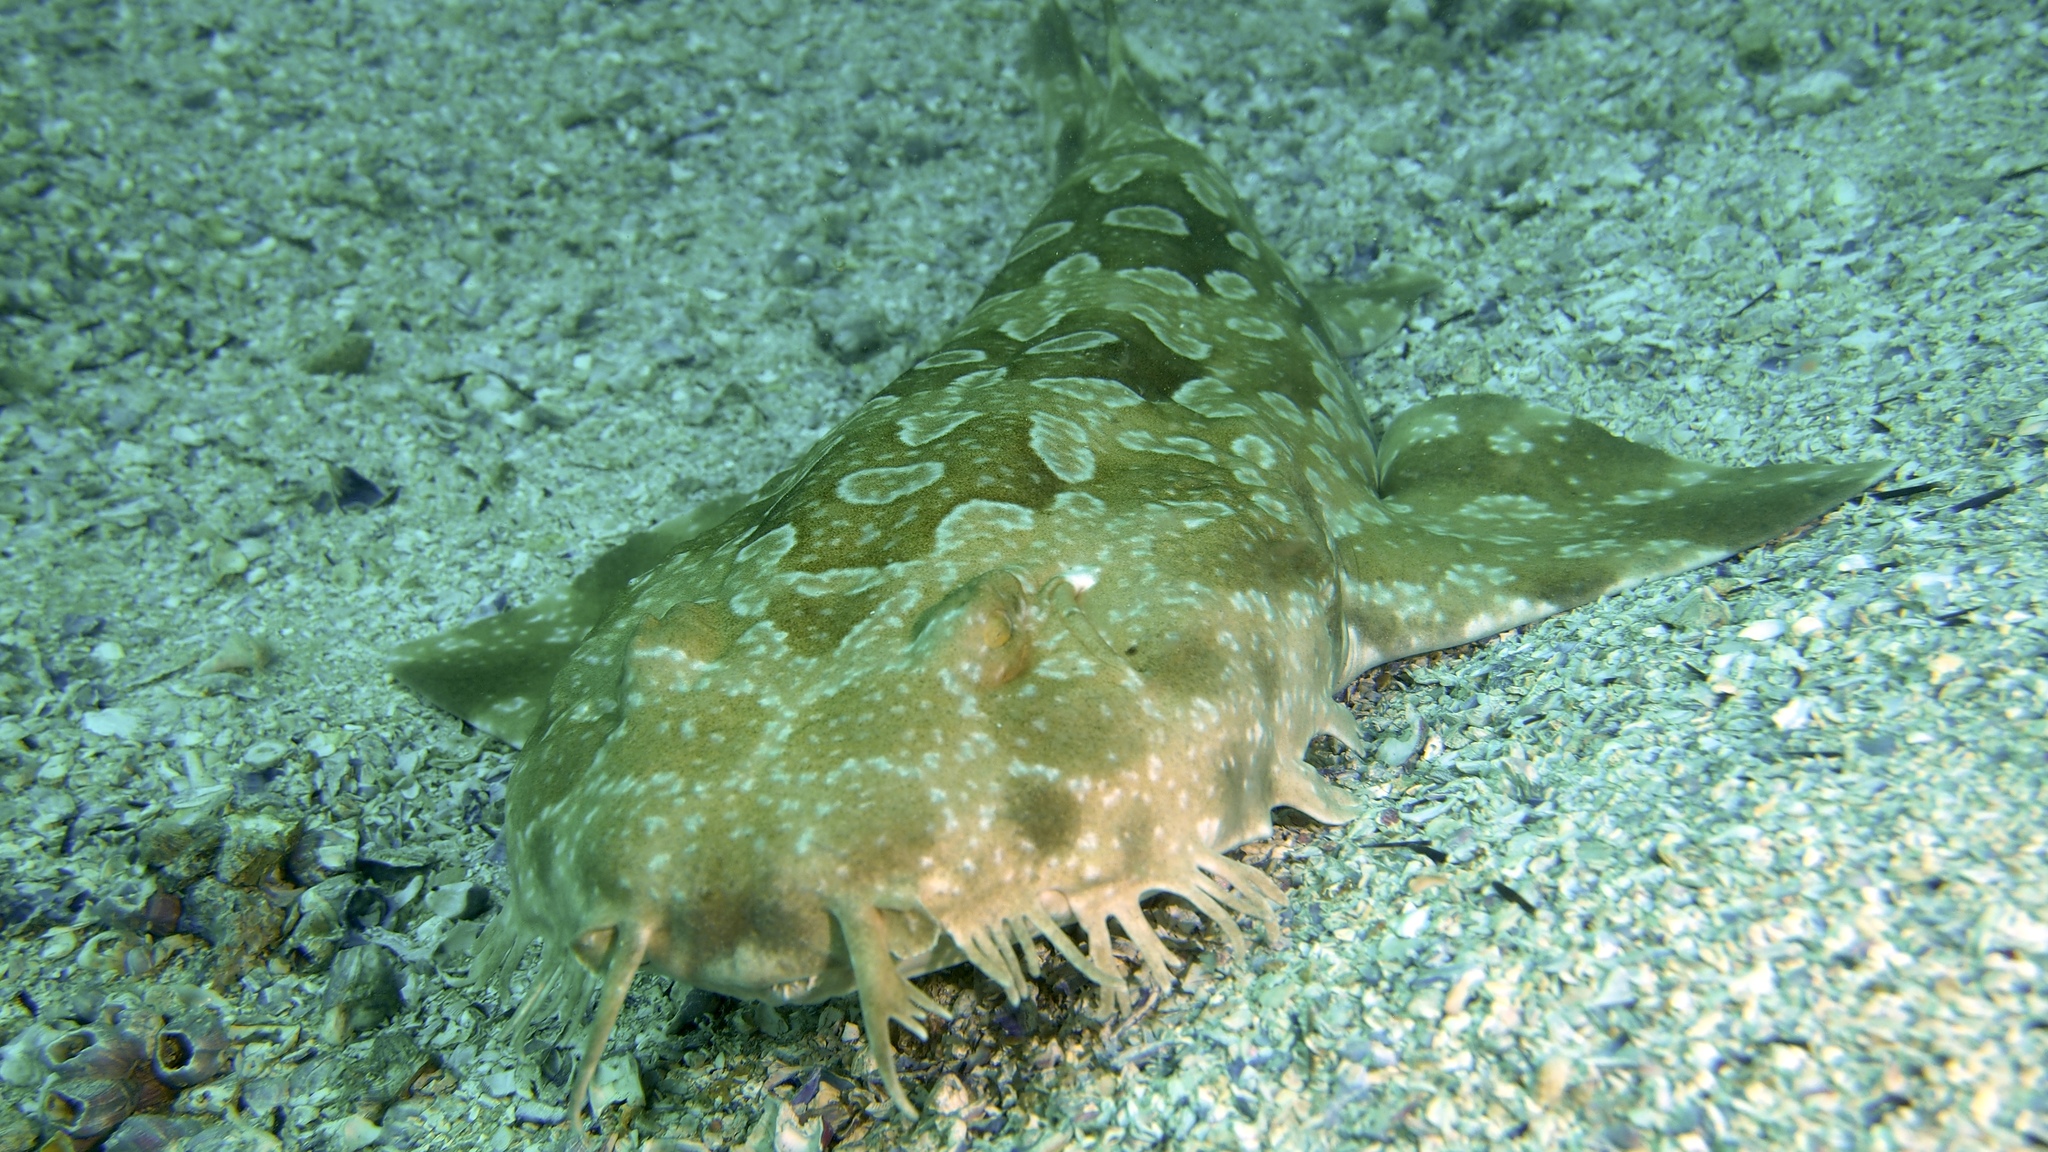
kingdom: Animalia
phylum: Chordata
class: Elasmobranchii
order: Orectolobiformes
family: Orectolobidae
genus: Orectolobus
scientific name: Orectolobus maculatus
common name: Spotted wobbegong
